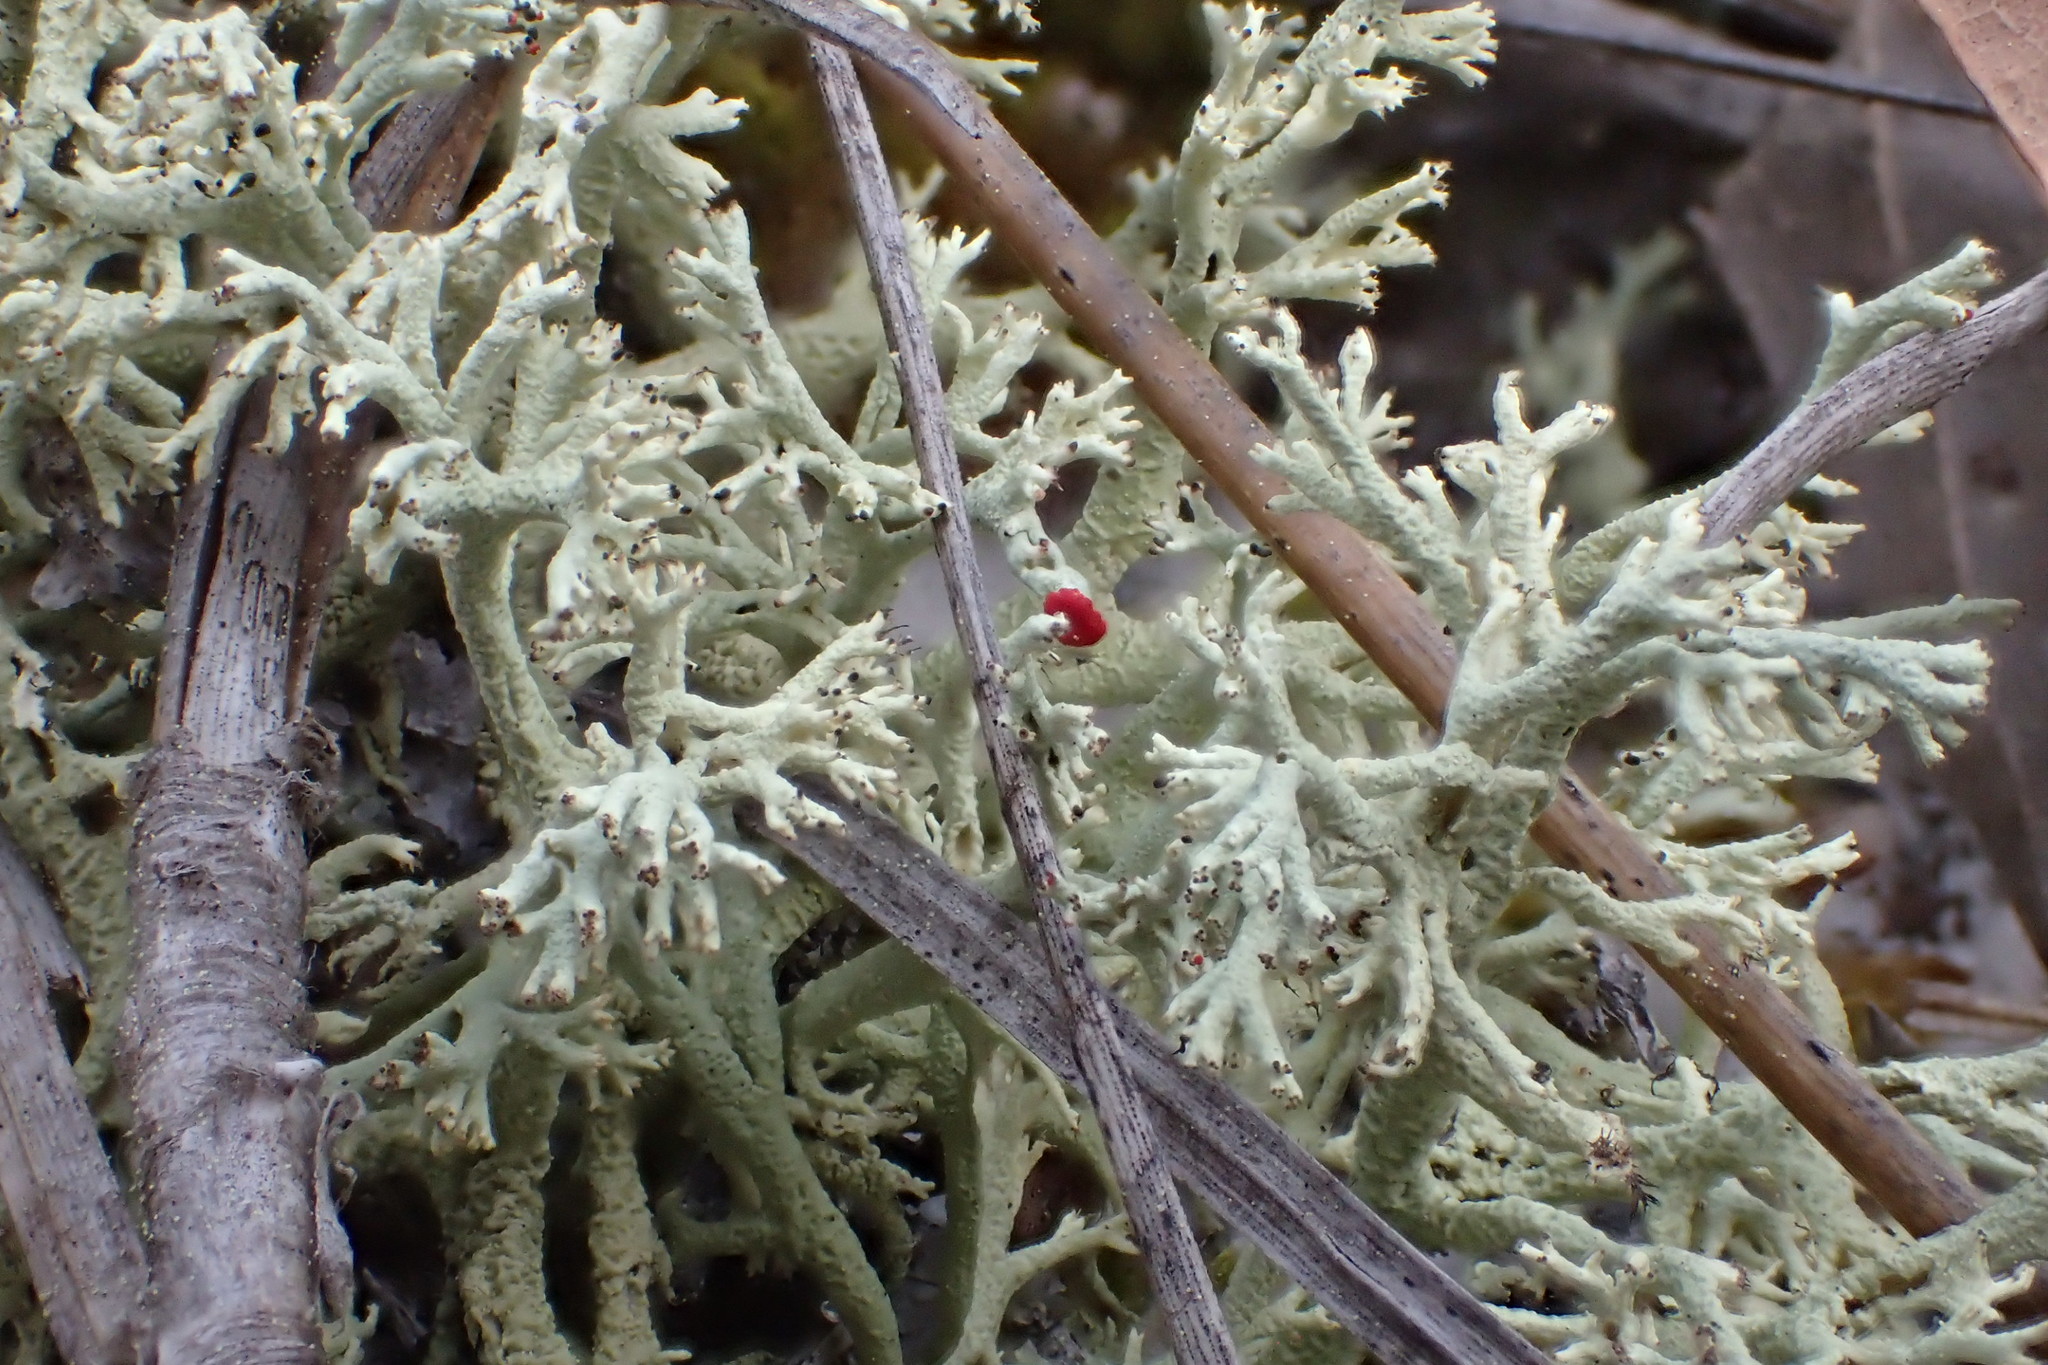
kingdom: Fungi
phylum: Ascomycota
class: Lecanoromycetes
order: Lecanorales
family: Cladoniaceae
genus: Cladonia
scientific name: Cladonia leporina
